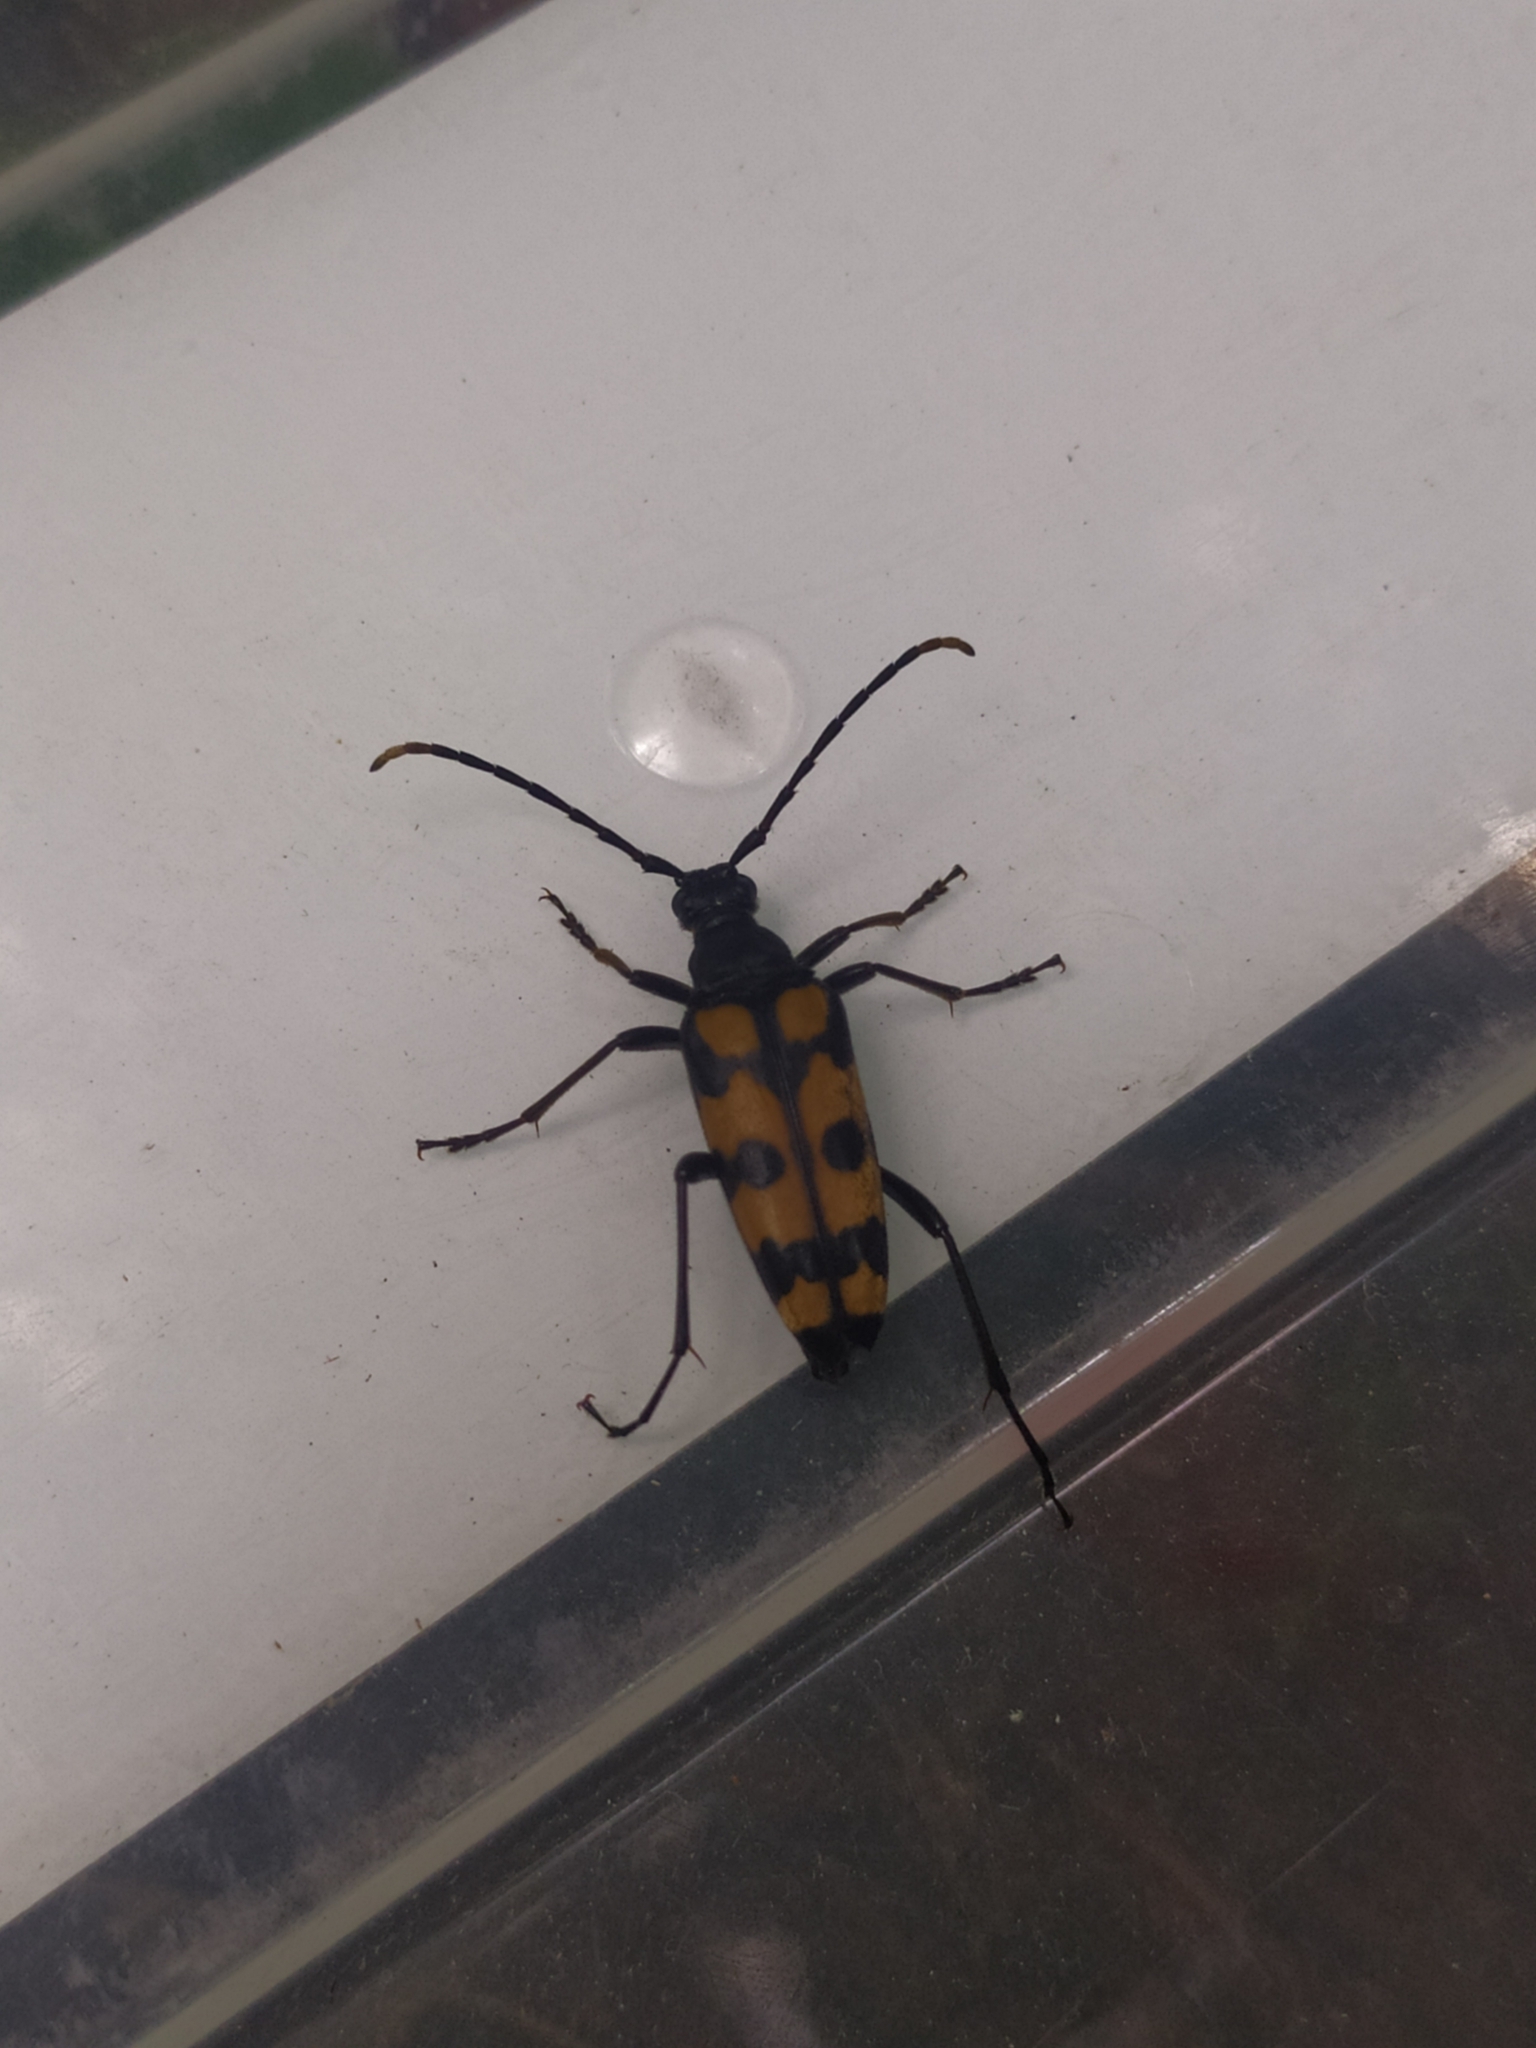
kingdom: Animalia
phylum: Arthropoda
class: Insecta
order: Coleoptera
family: Cerambycidae
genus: Leptura
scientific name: Leptura quadrifasciata
